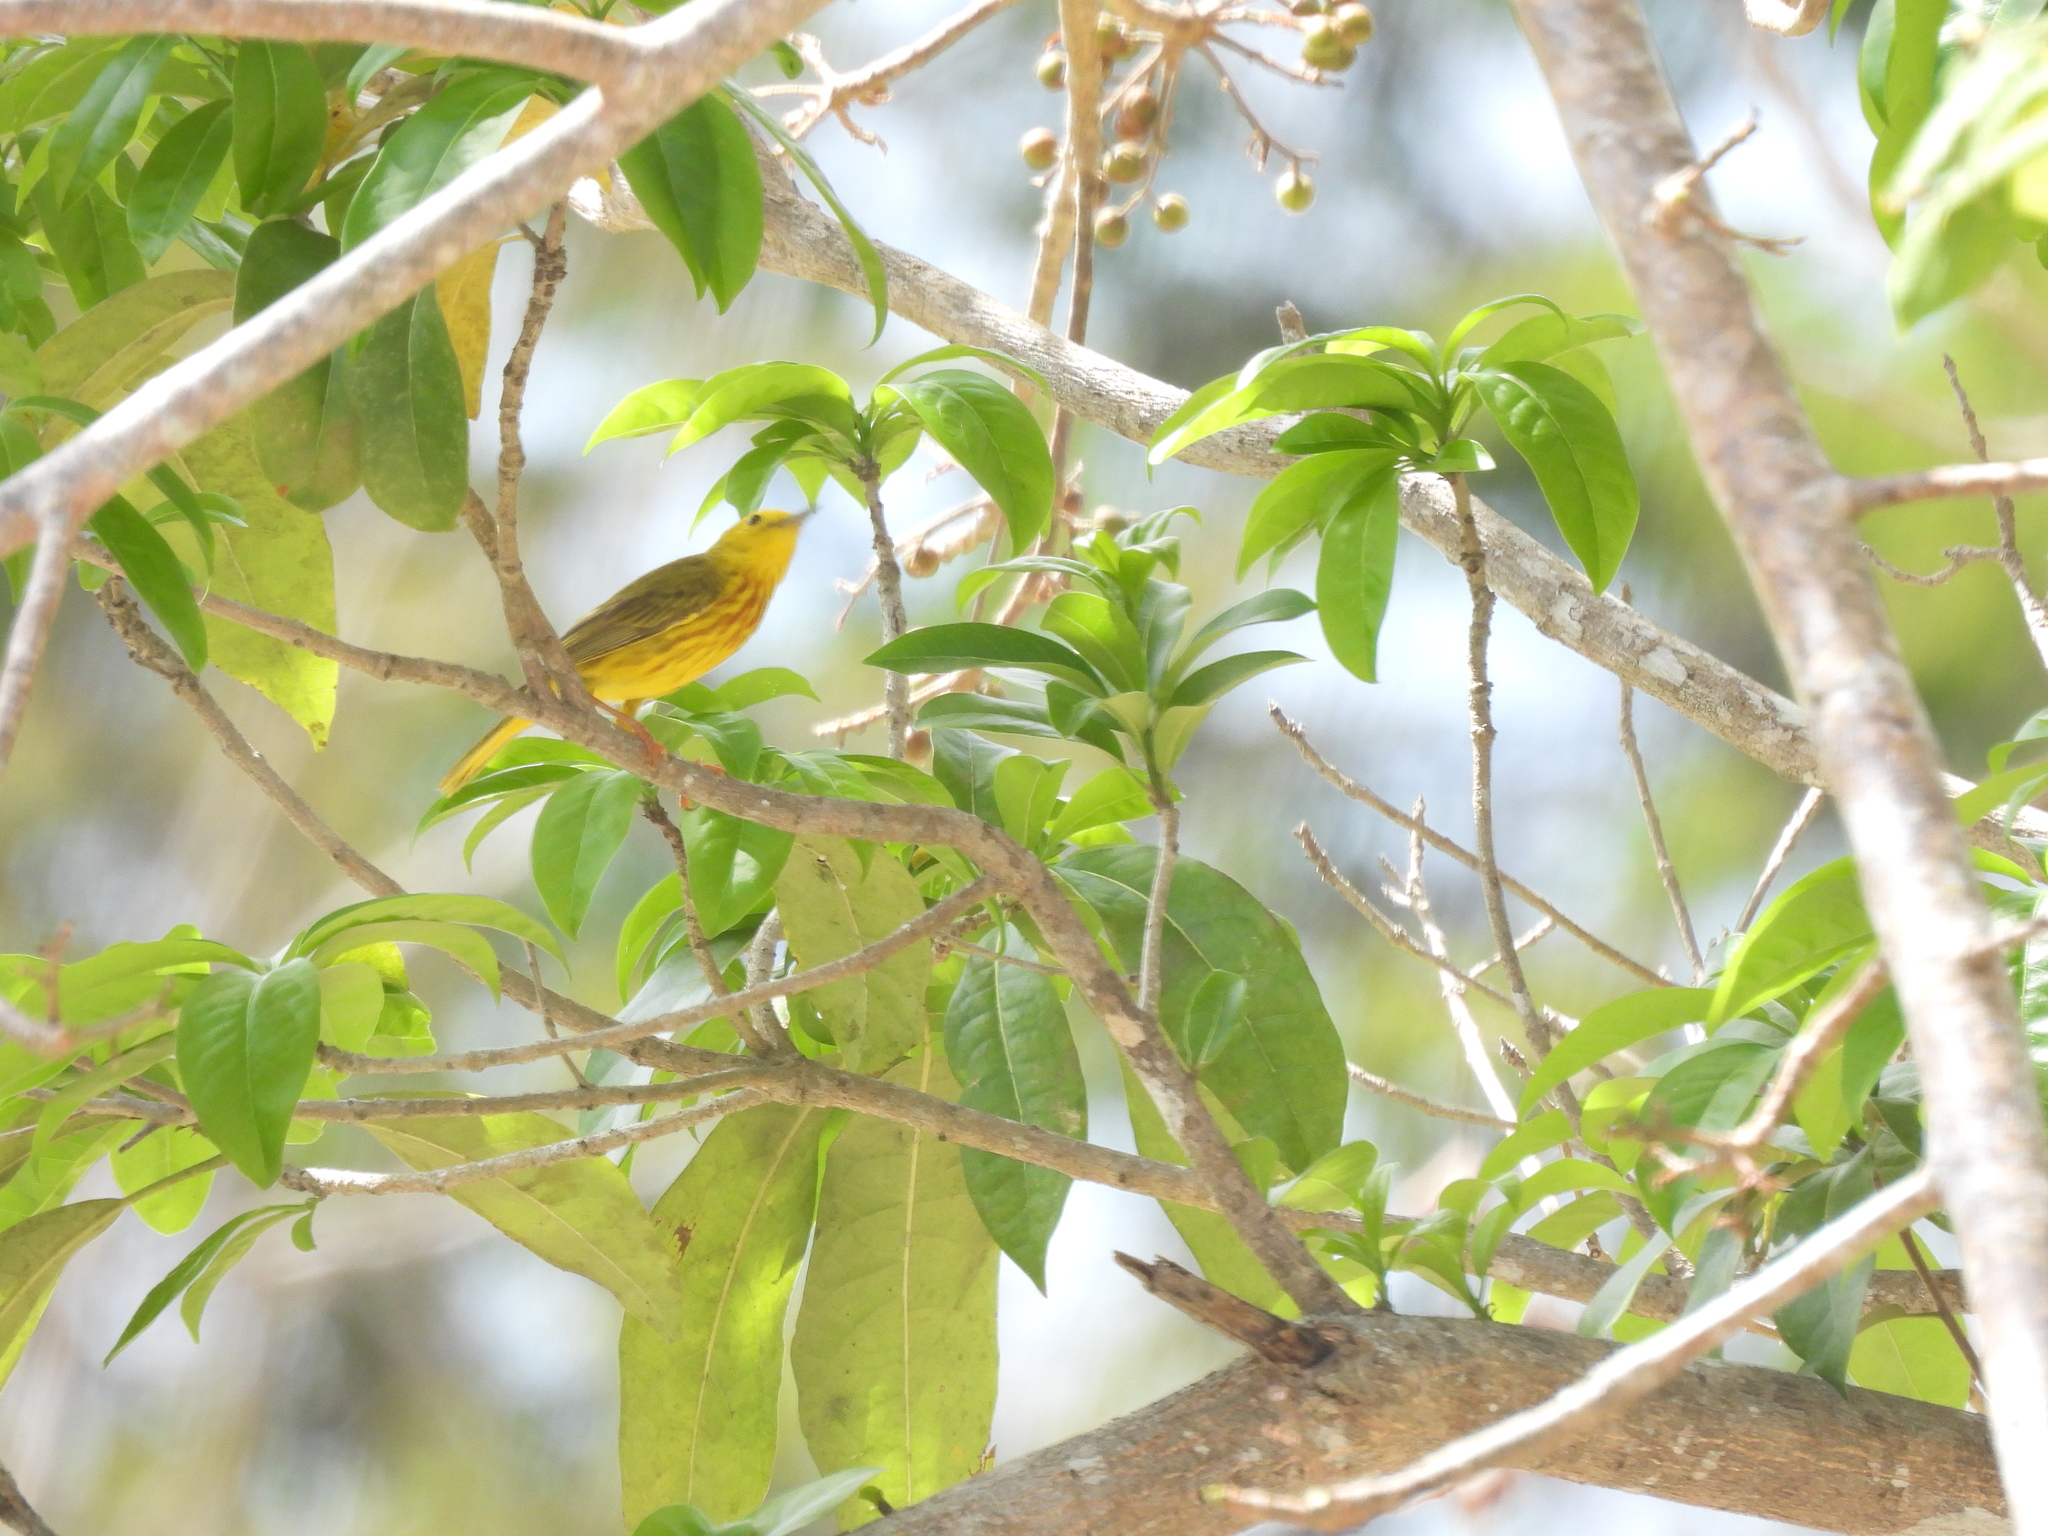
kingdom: Animalia
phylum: Chordata
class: Aves
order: Passeriformes
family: Parulidae
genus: Setophaga
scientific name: Setophaga petechia
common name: Yellow warbler
